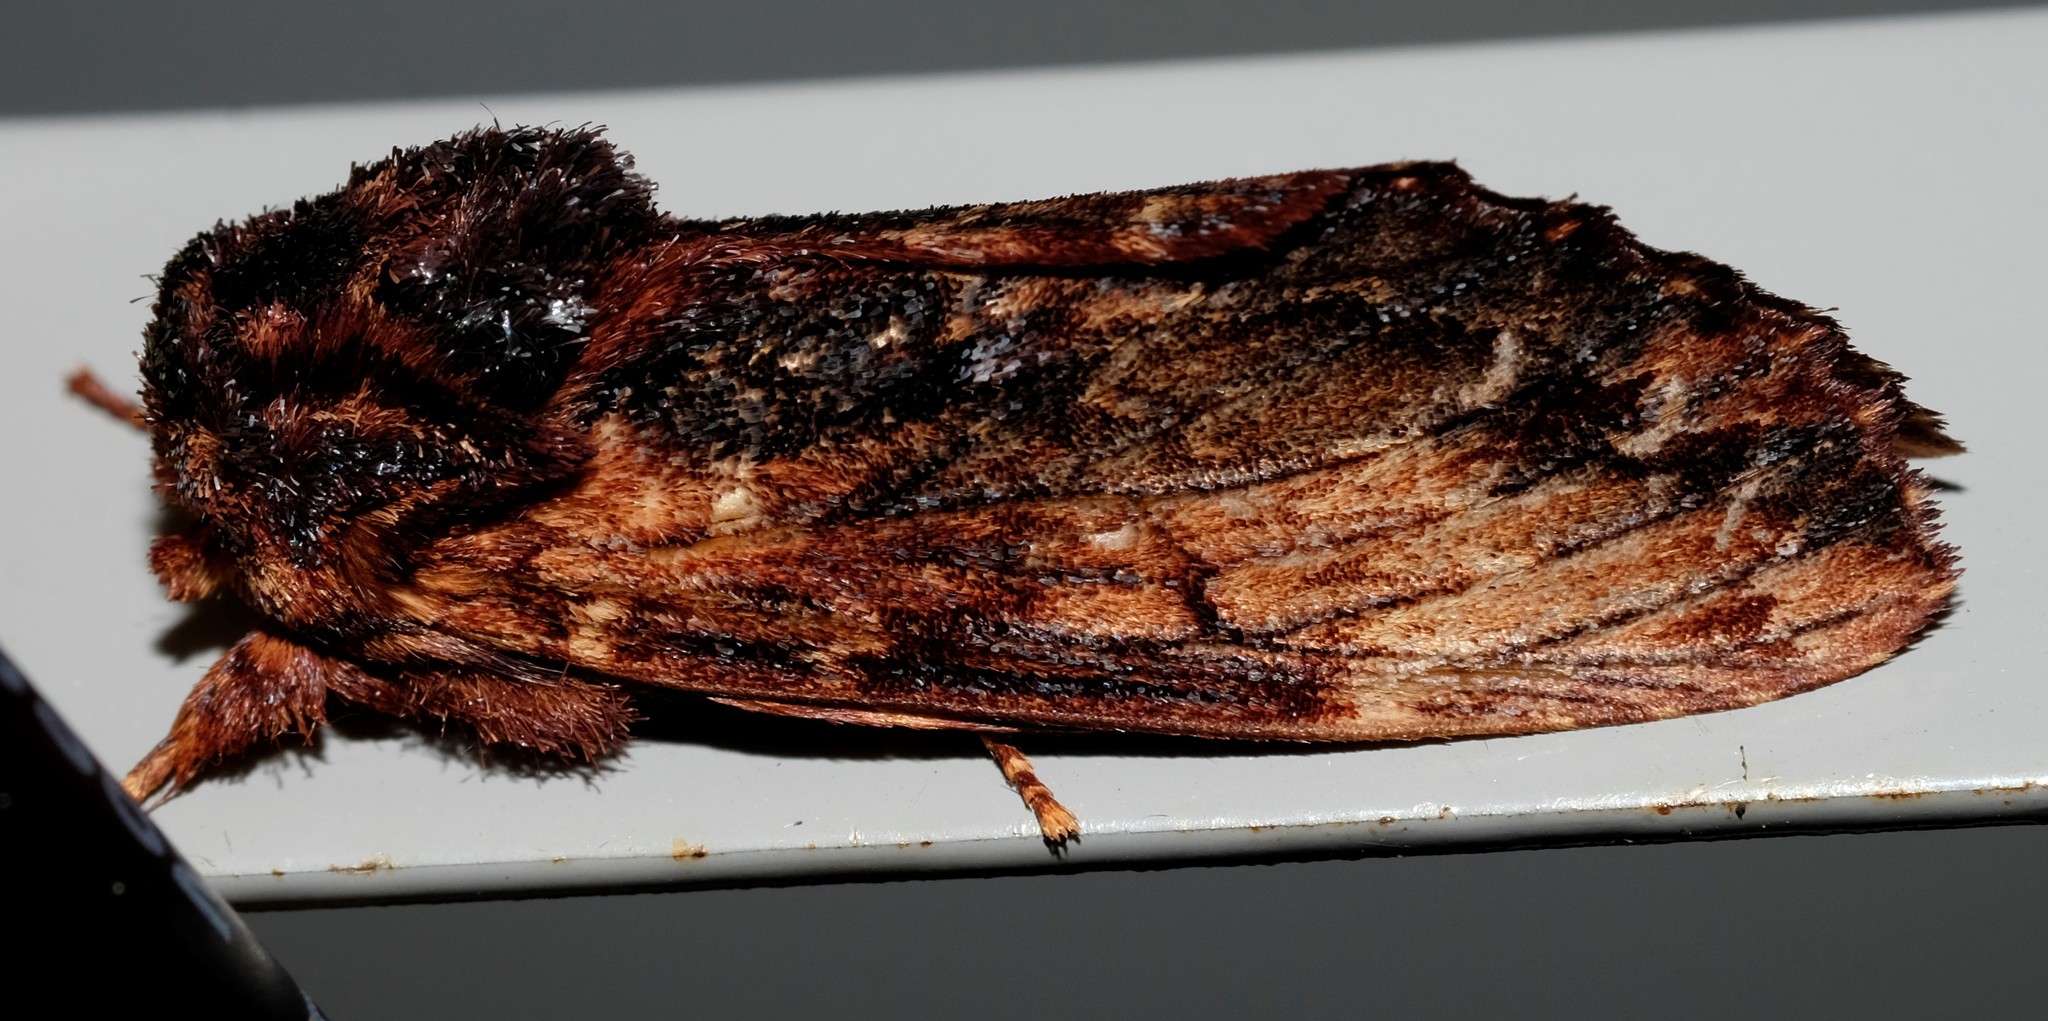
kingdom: Animalia
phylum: Arthropoda
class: Insecta
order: Lepidoptera
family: Notodontidae
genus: Sorama
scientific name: Sorama bicolor
